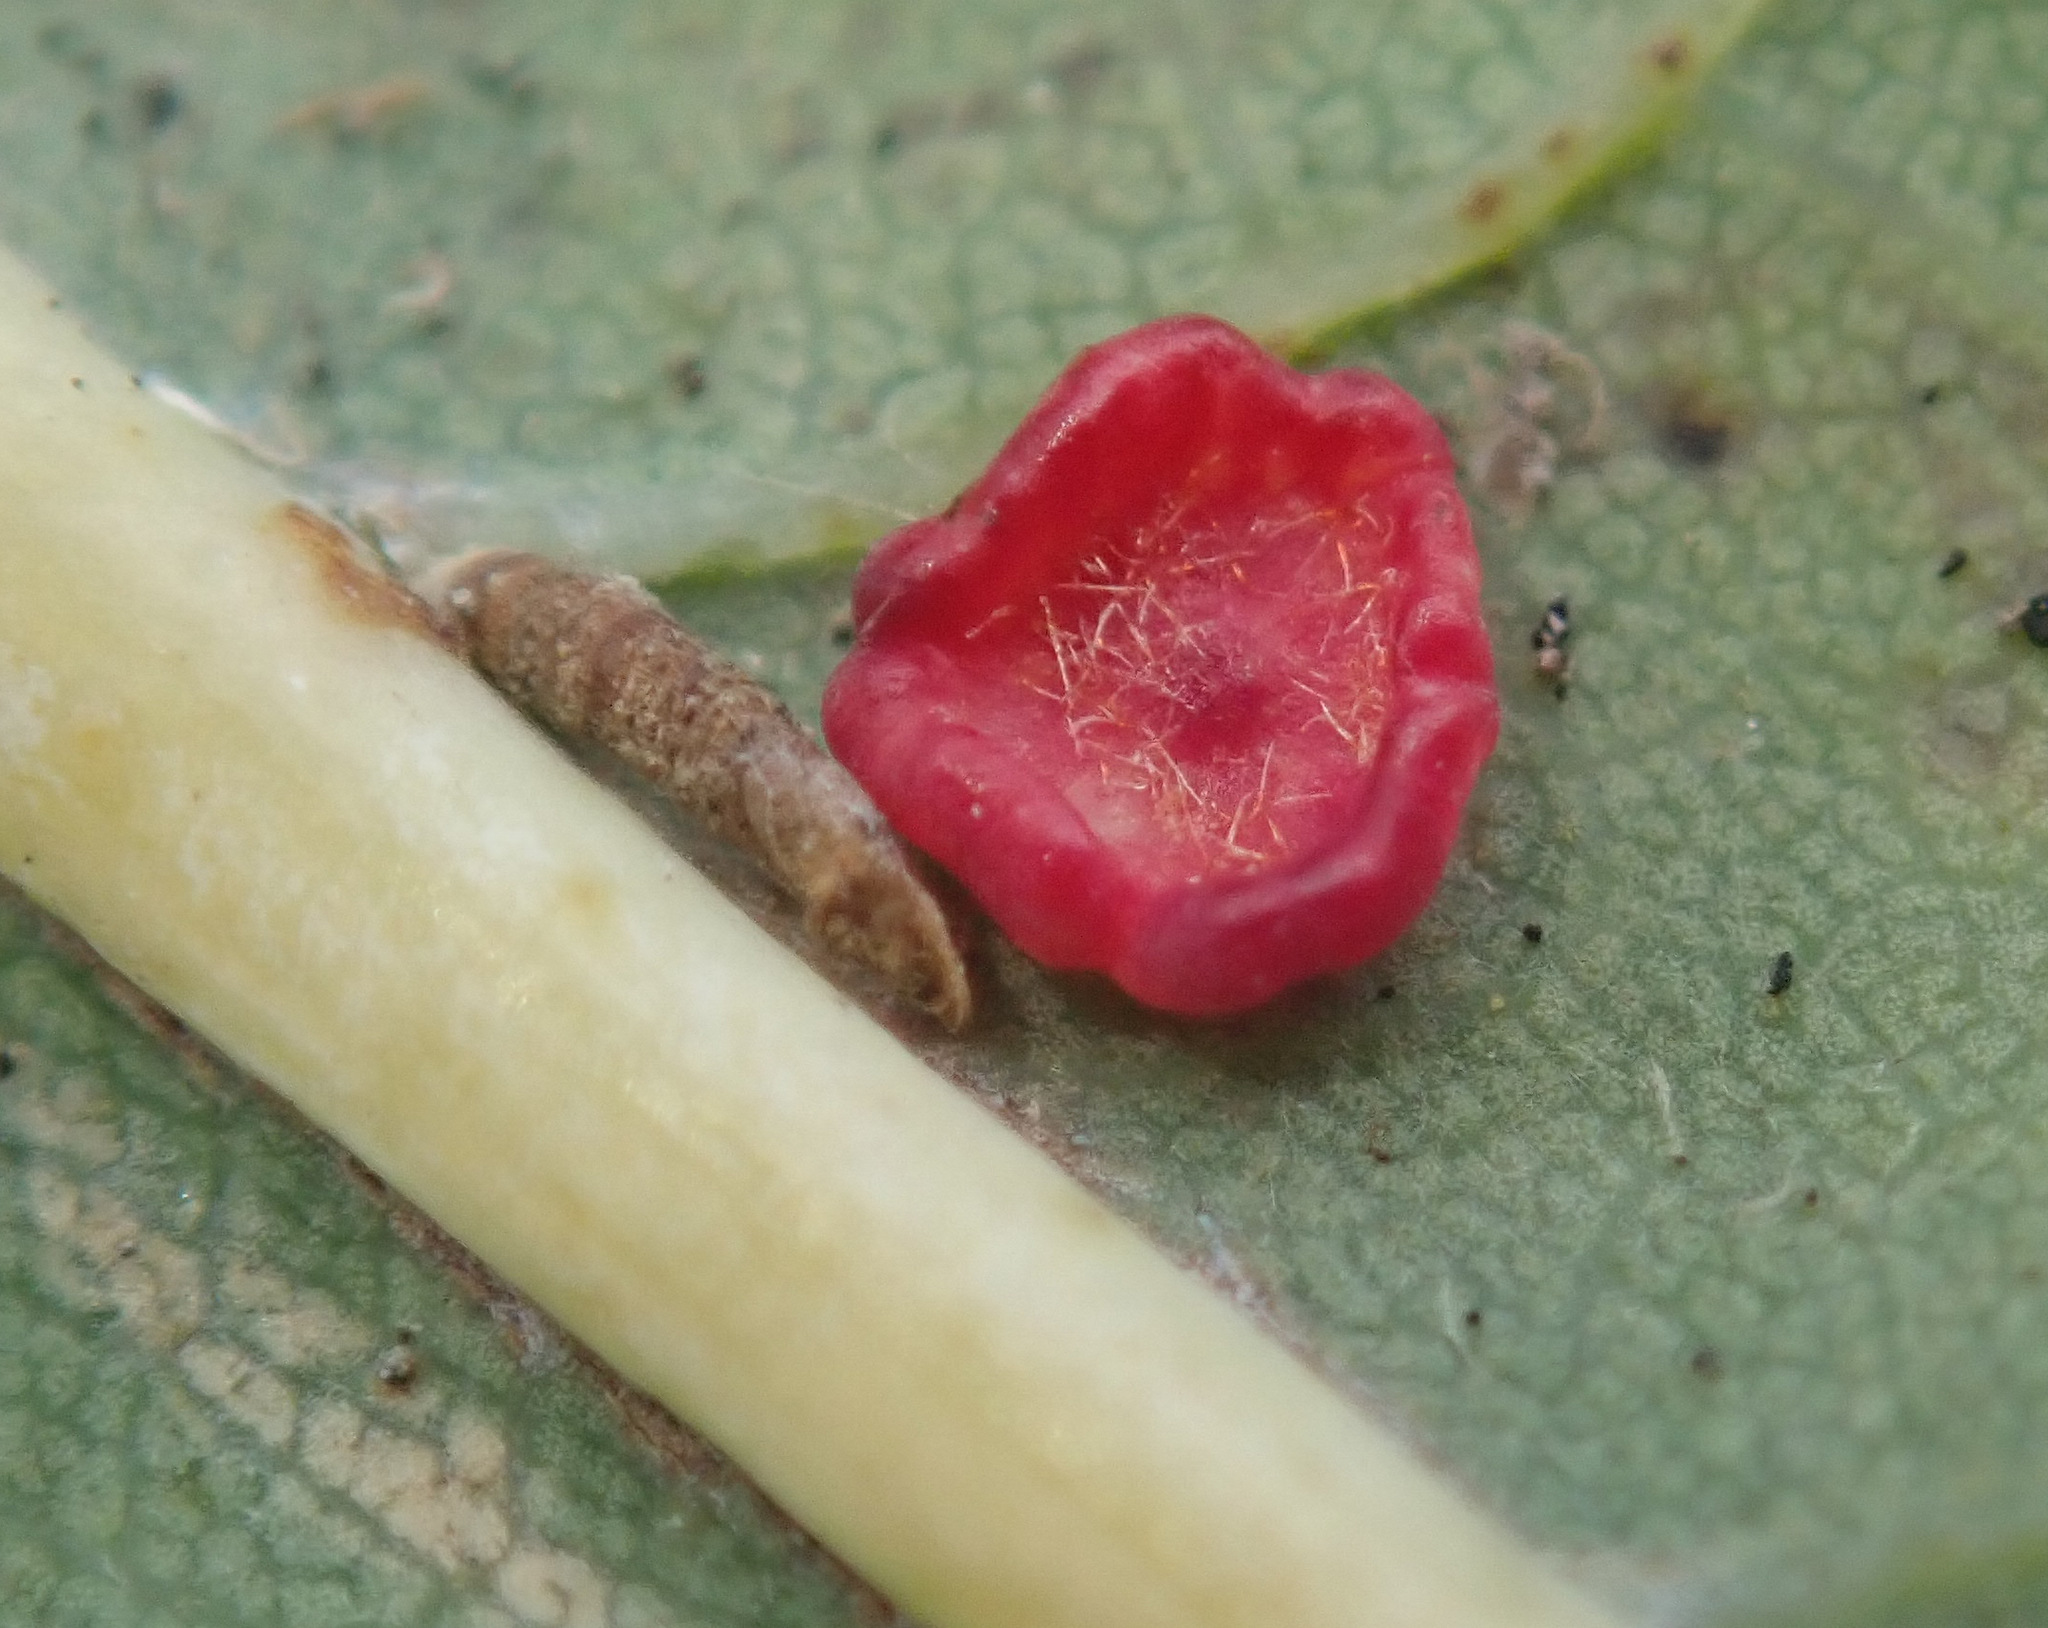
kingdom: Animalia
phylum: Arthropoda
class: Insecta
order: Hymenoptera
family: Cynipidae
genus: Neuroterus
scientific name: Neuroterus albipes
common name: Smooth spangle gall
